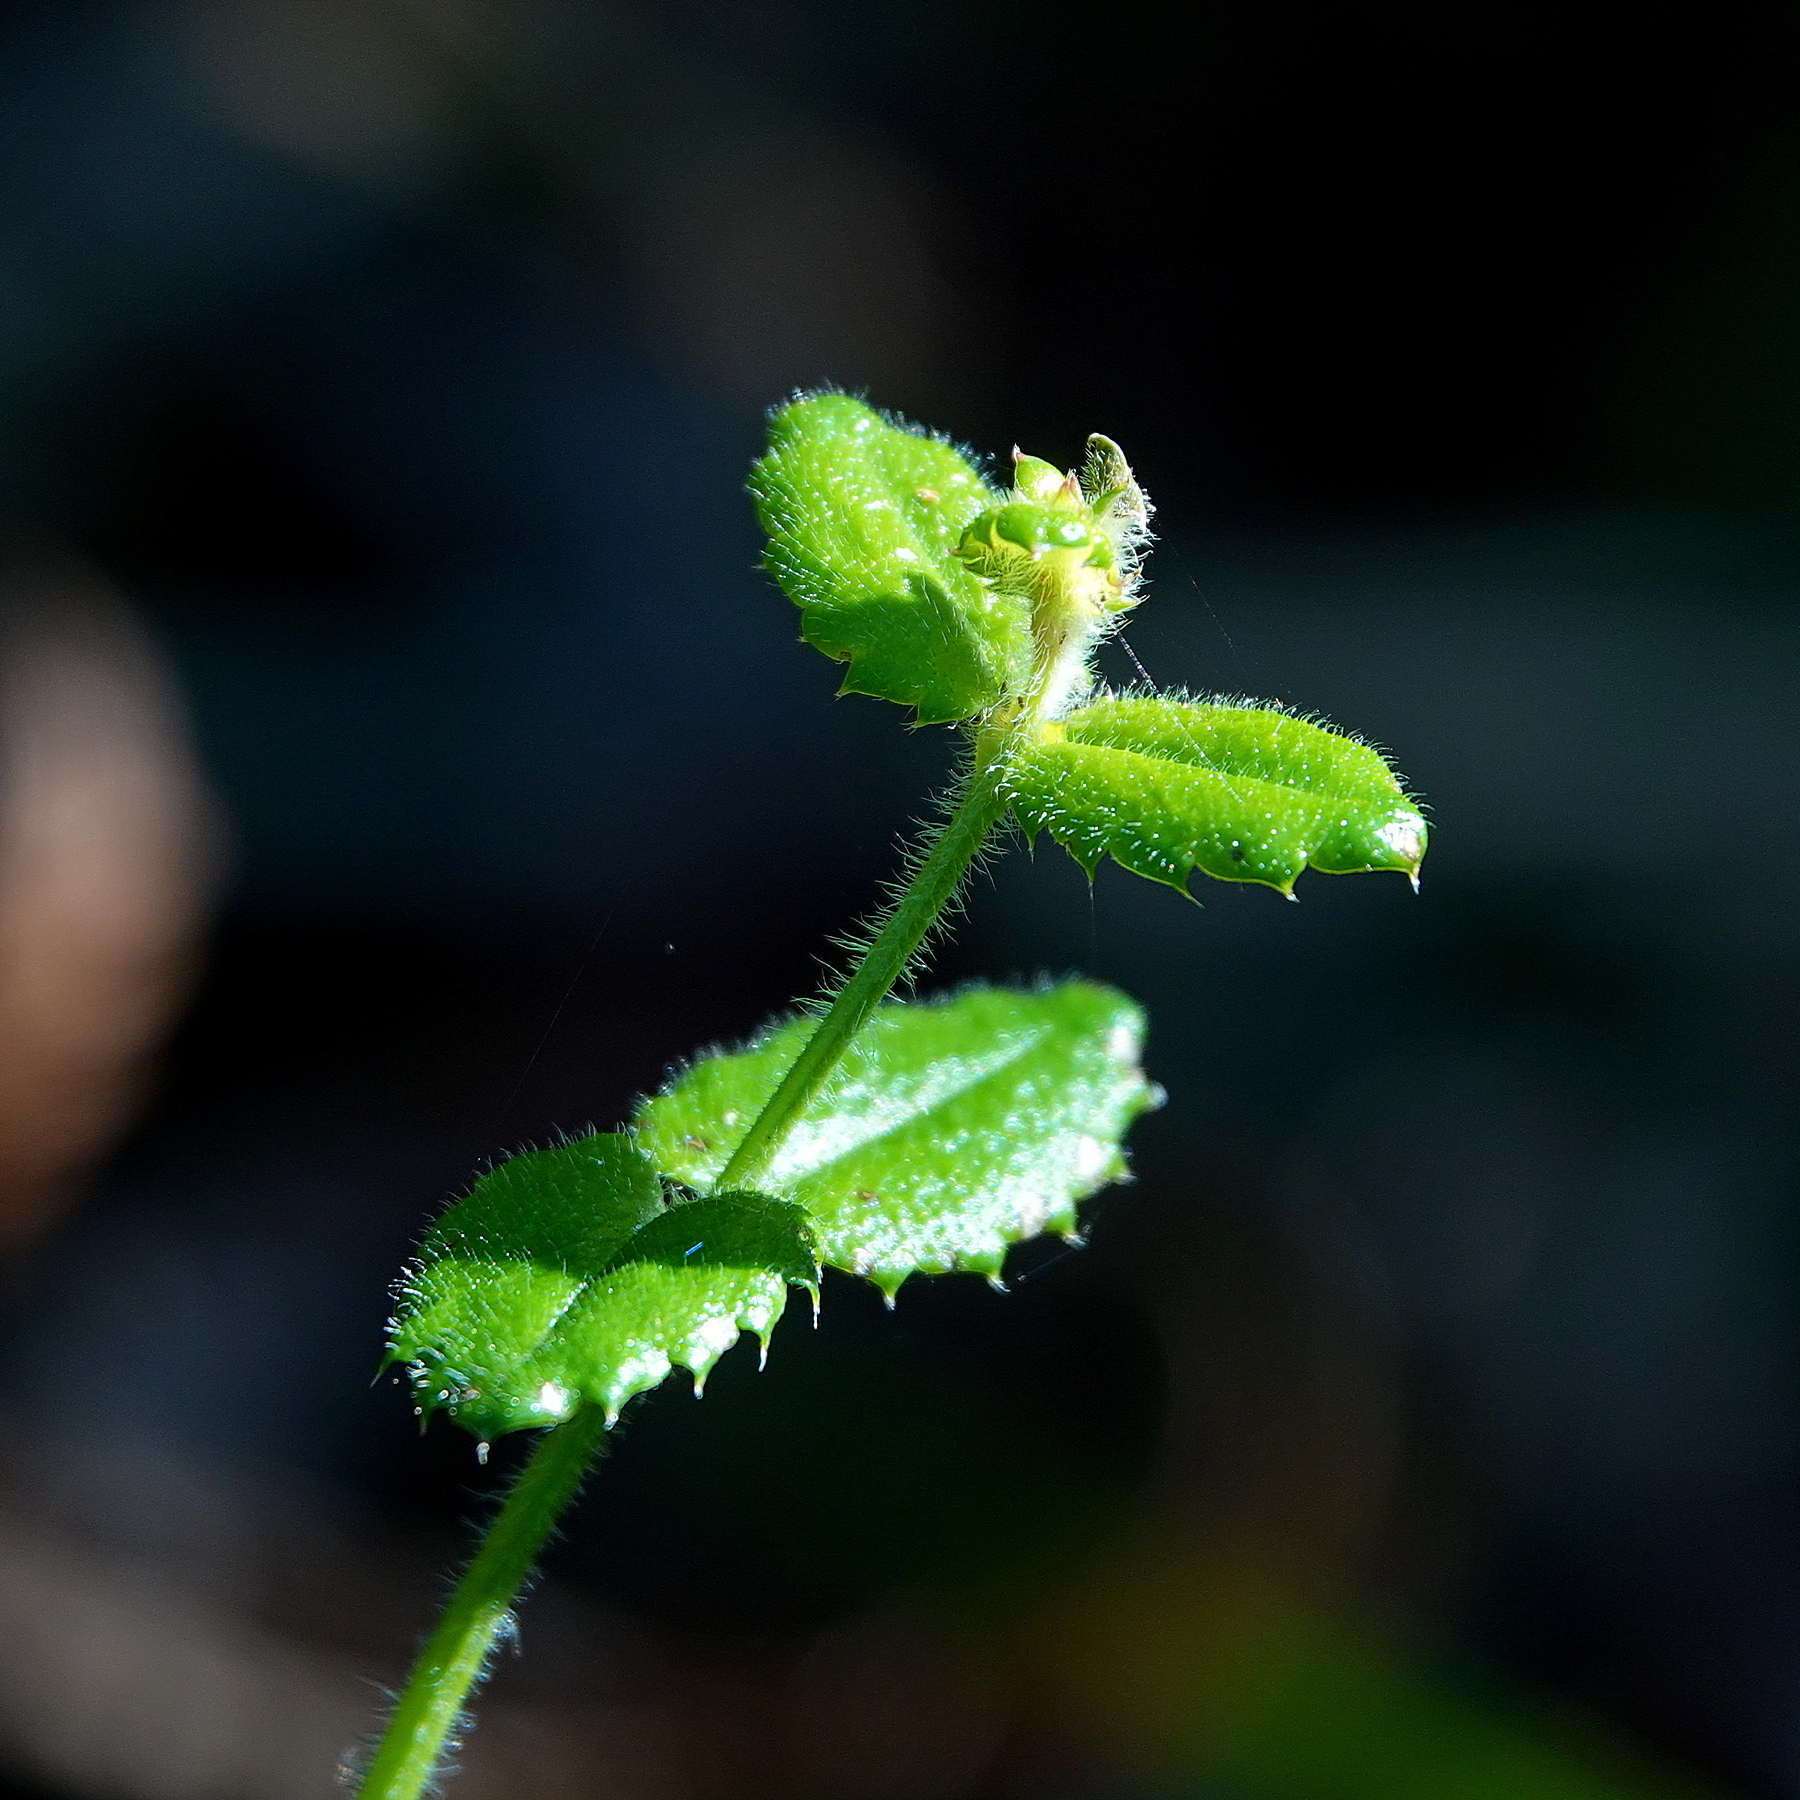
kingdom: Plantae
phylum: Tracheophyta
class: Magnoliopsida
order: Saxifragales
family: Haloragaceae
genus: Gonocarpus
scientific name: Gonocarpus teucrioides
